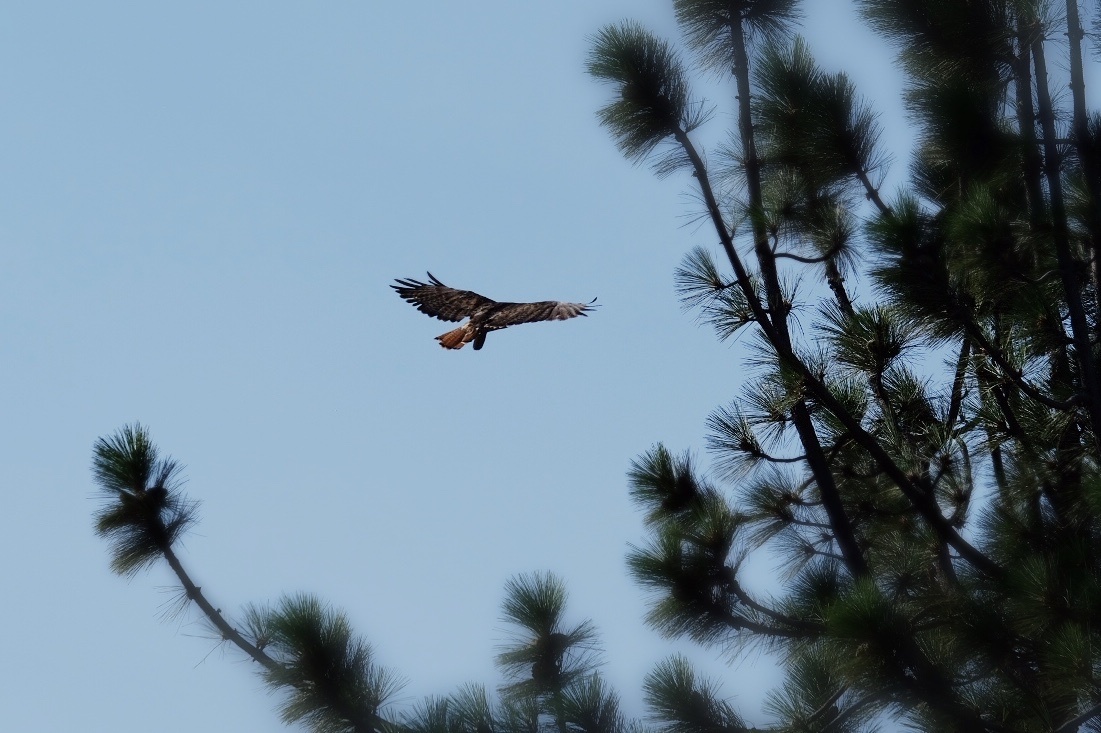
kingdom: Animalia
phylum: Chordata
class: Aves
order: Accipitriformes
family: Accipitridae
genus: Buteo
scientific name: Buteo jamaicensis
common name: Red-tailed hawk
